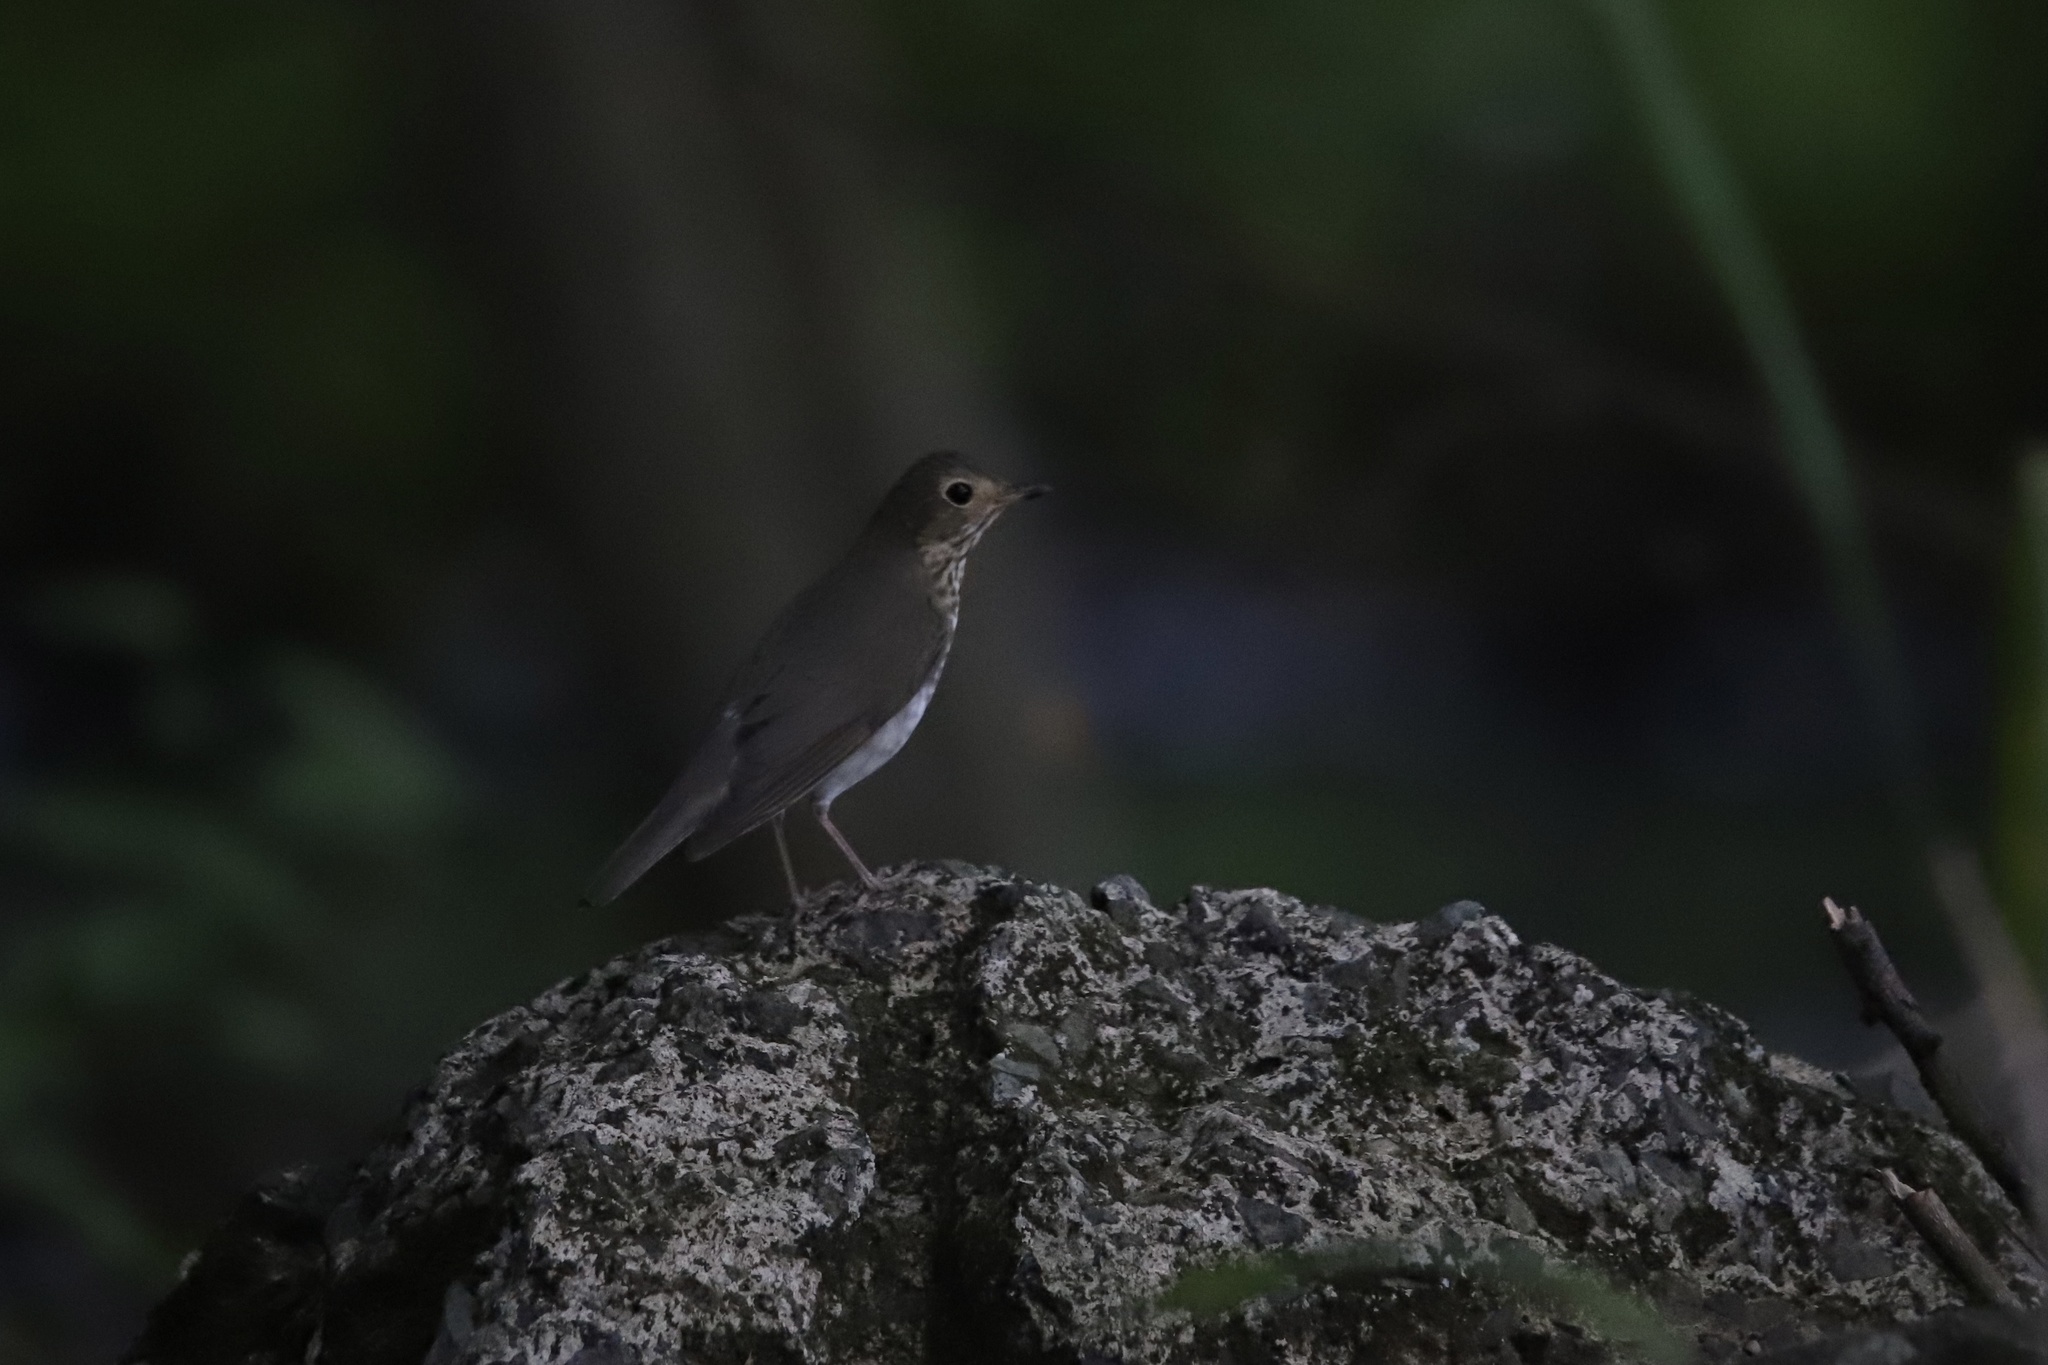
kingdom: Animalia
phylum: Chordata
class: Aves
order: Passeriformes
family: Turdidae
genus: Catharus
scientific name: Catharus ustulatus
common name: Swainson's thrush
